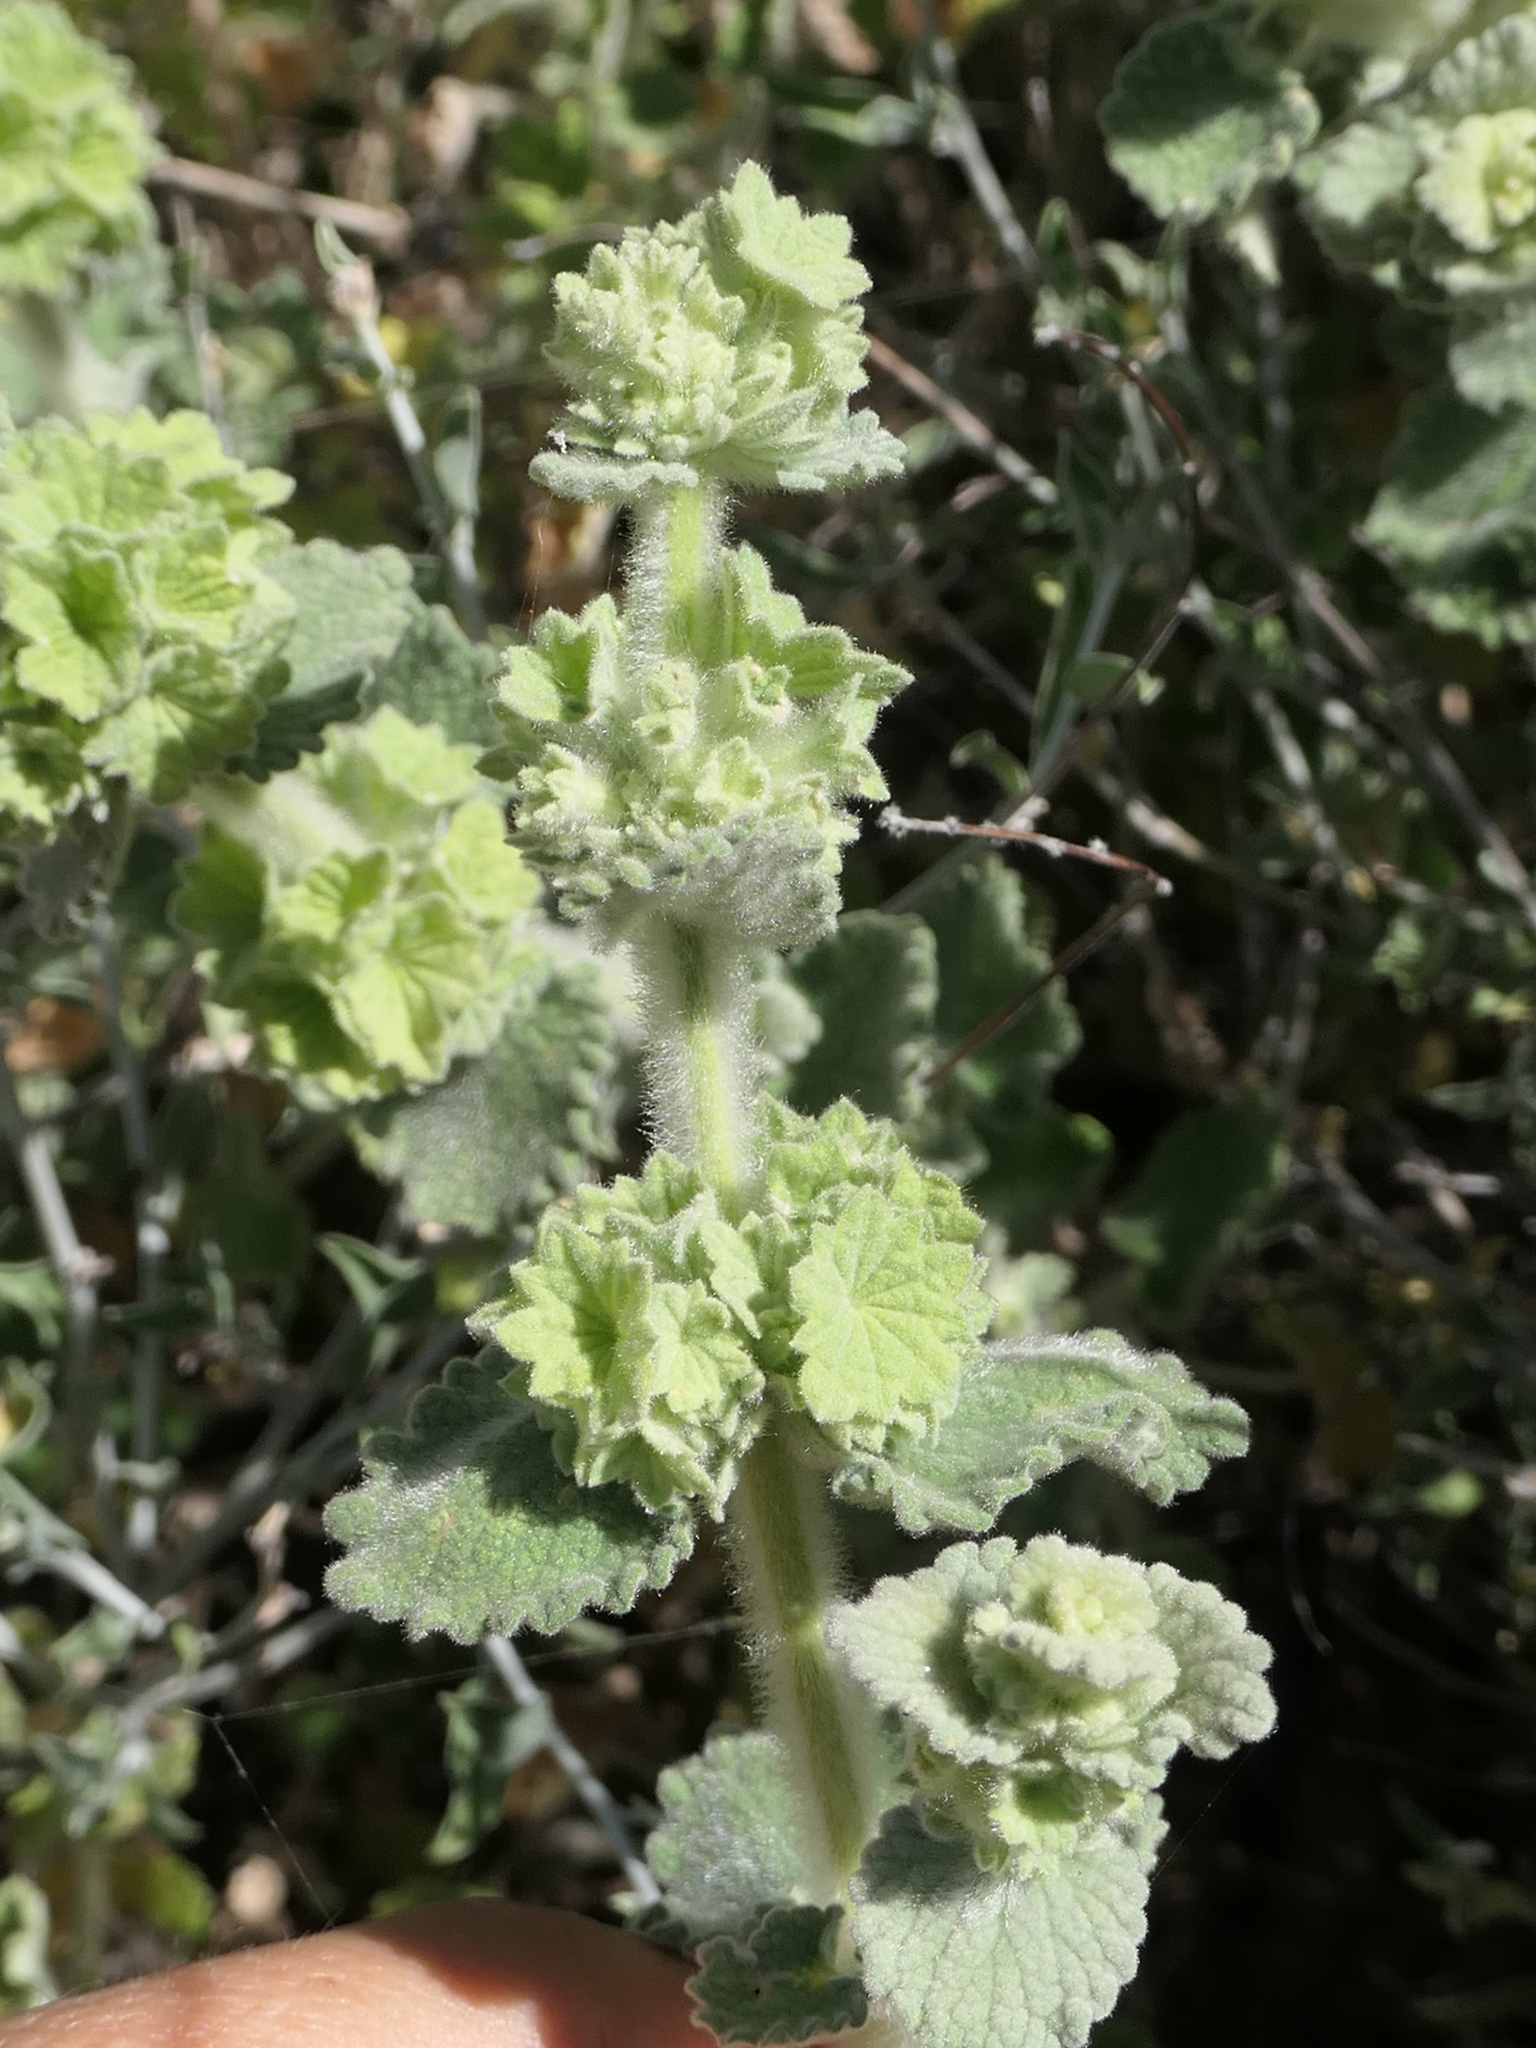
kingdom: Plantae
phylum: Tracheophyta
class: Magnoliopsida
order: Lamiales
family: Lamiaceae
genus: Pseudodictamnus
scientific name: Pseudodictamnus hirsutus
